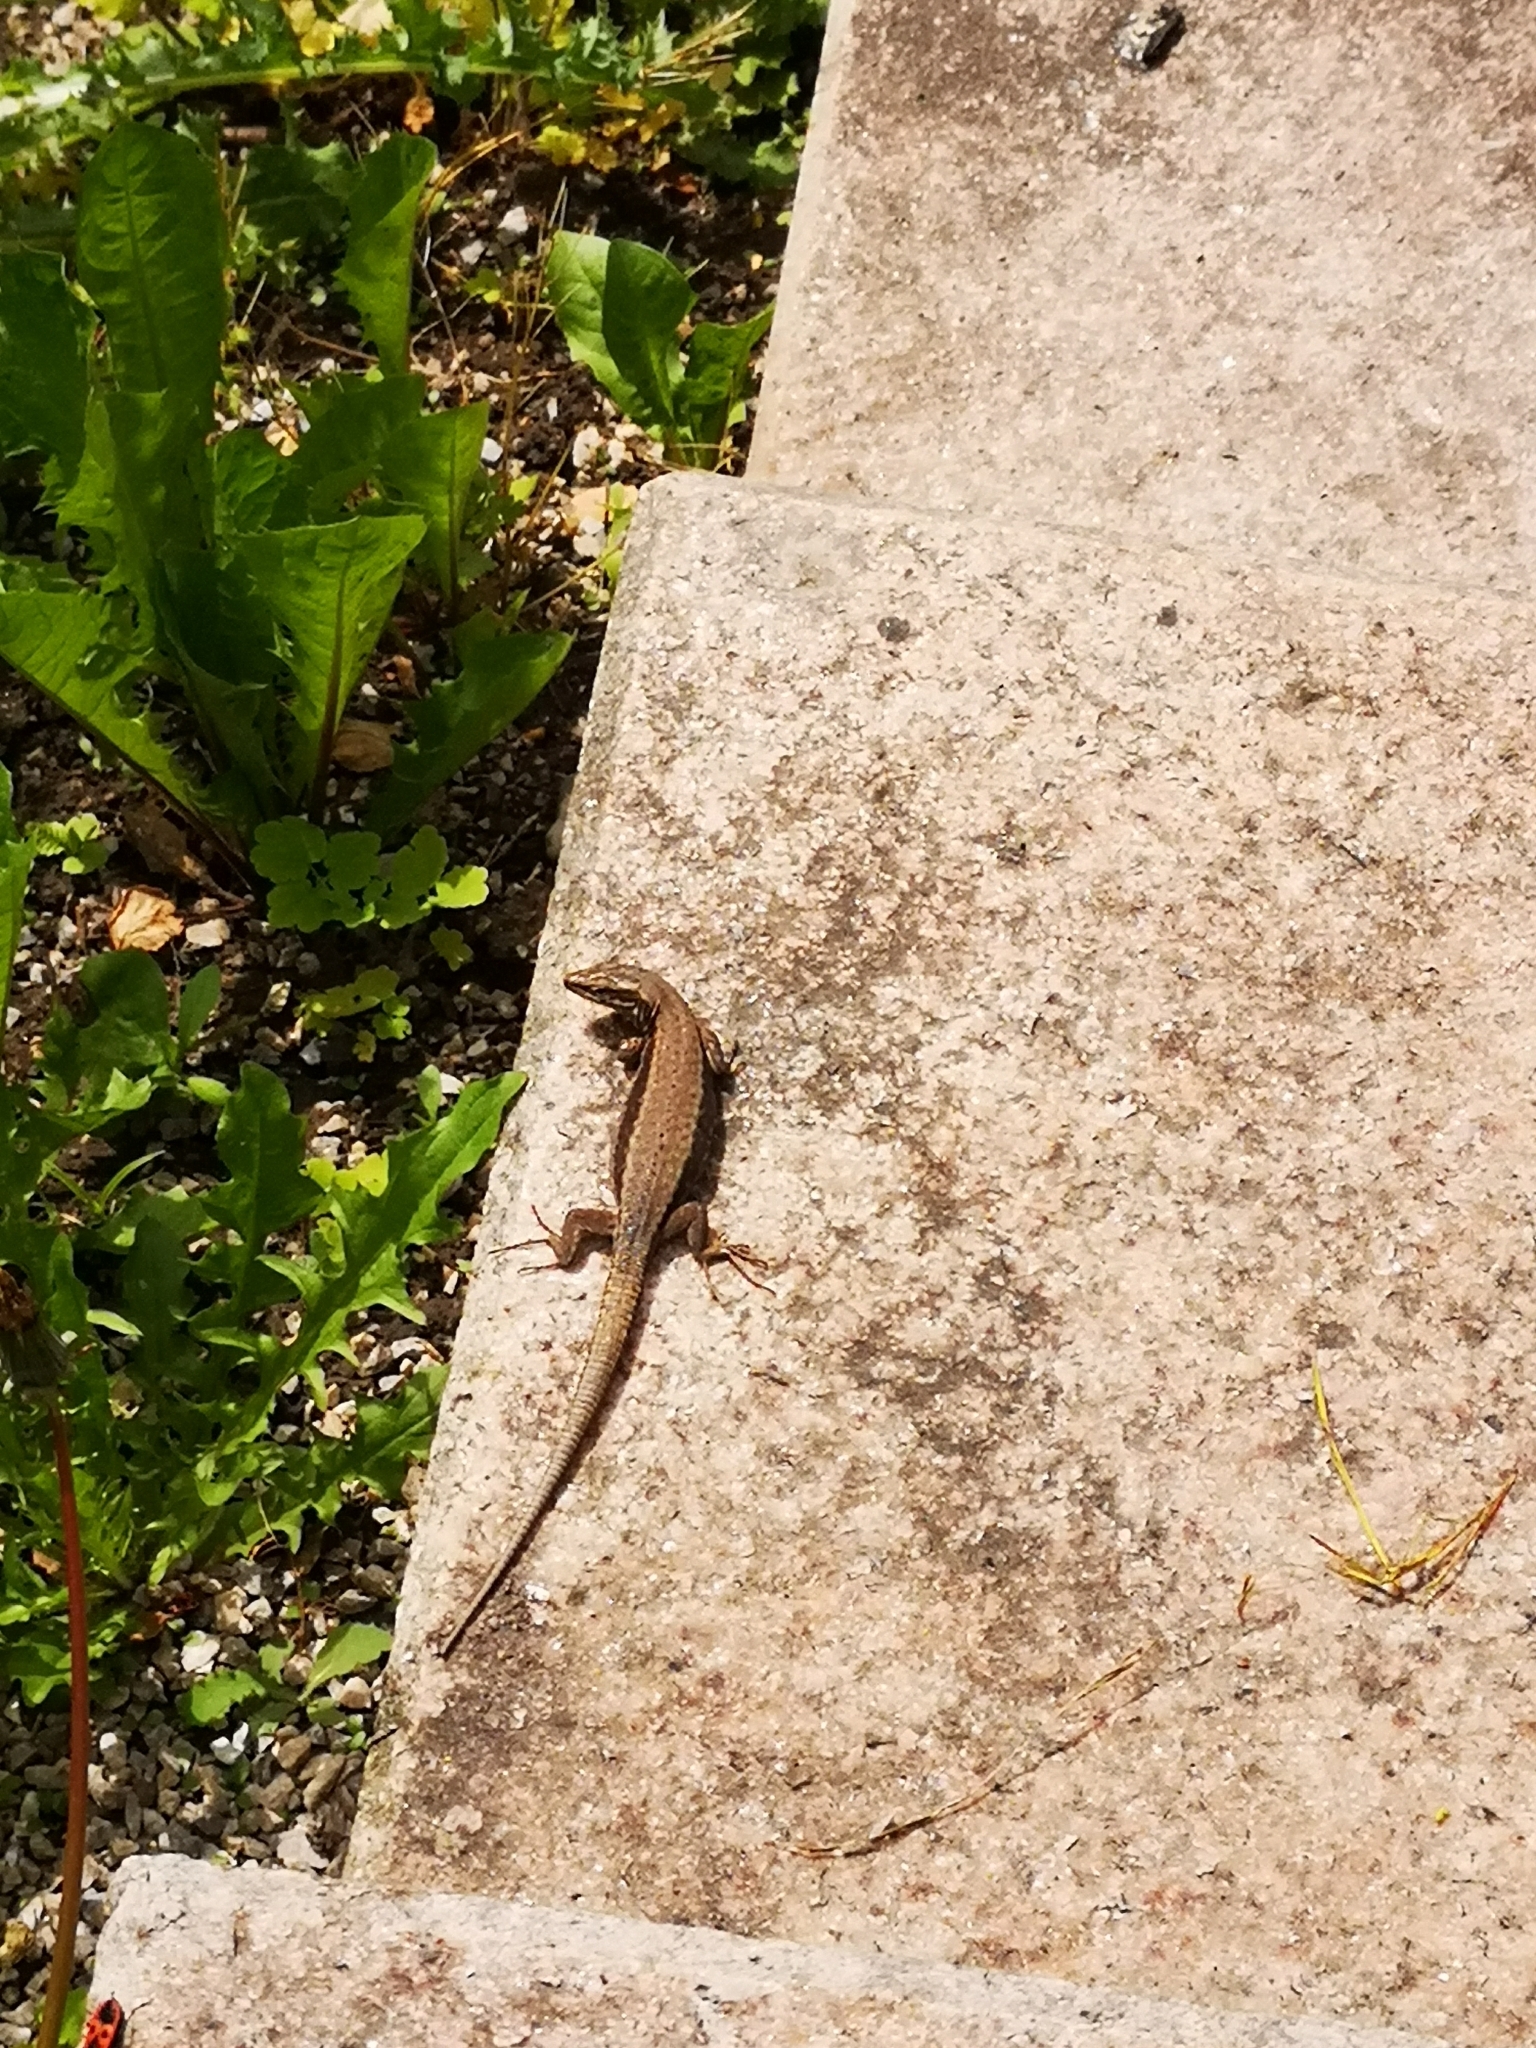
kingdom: Animalia
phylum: Chordata
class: Squamata
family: Lacertidae
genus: Podarcis
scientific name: Podarcis muralis
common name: Common wall lizard
